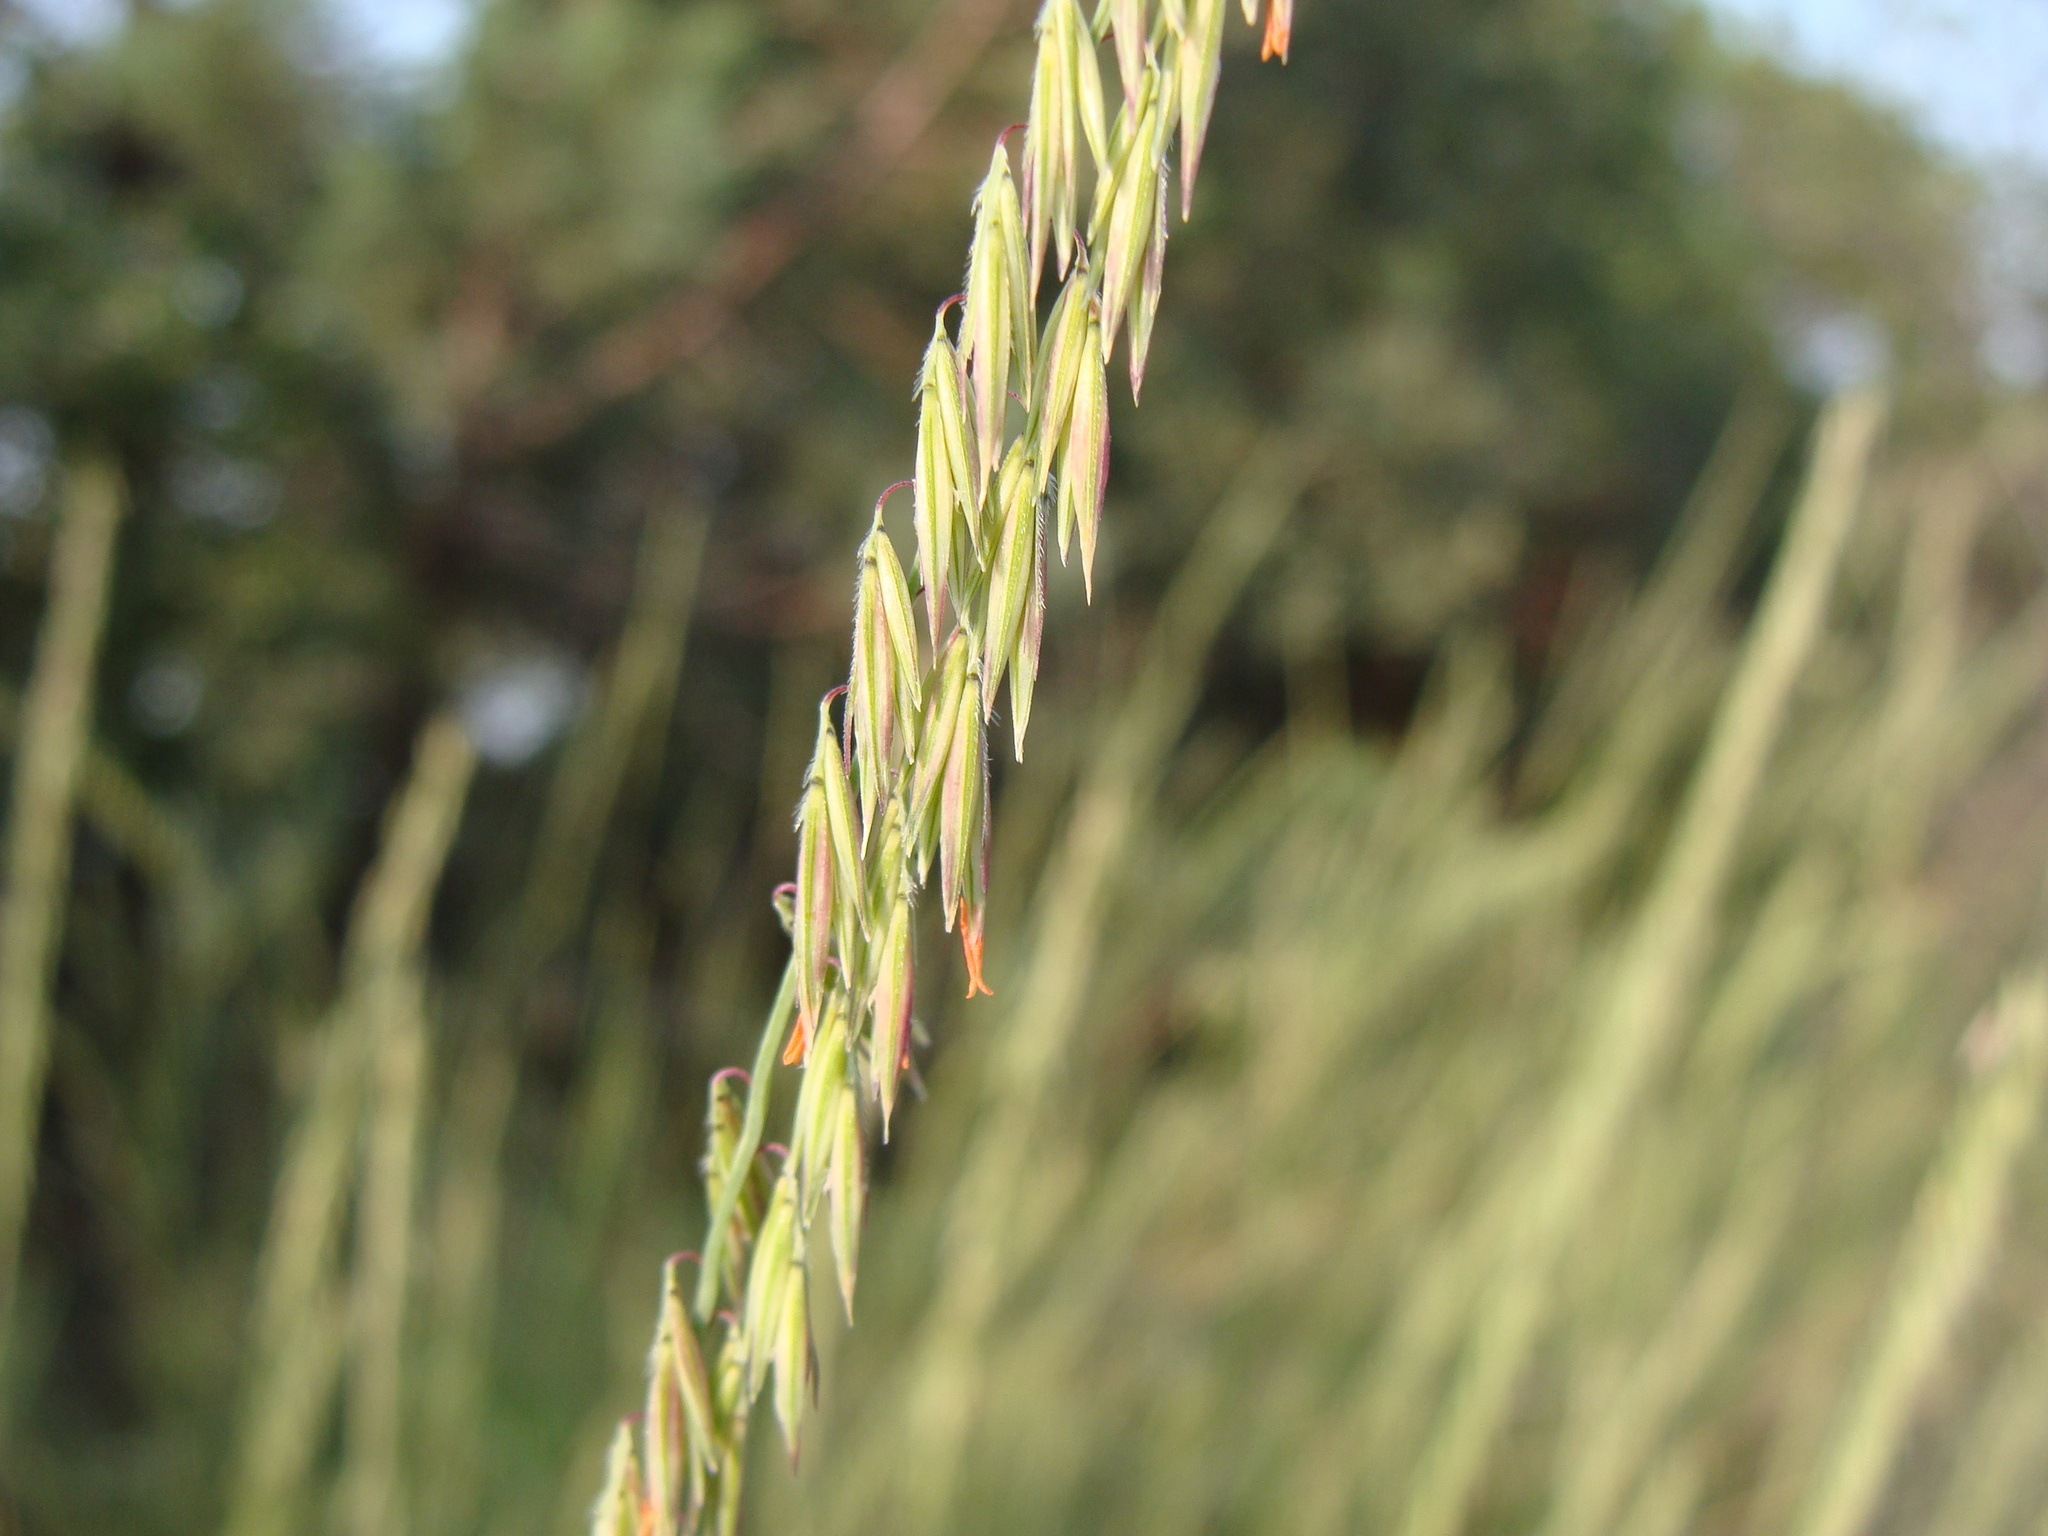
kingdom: Plantae
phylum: Tracheophyta
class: Liliopsida
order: Poales
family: Poaceae
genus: Bouteloua
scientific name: Bouteloua curtipendula
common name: Side-oats grama
